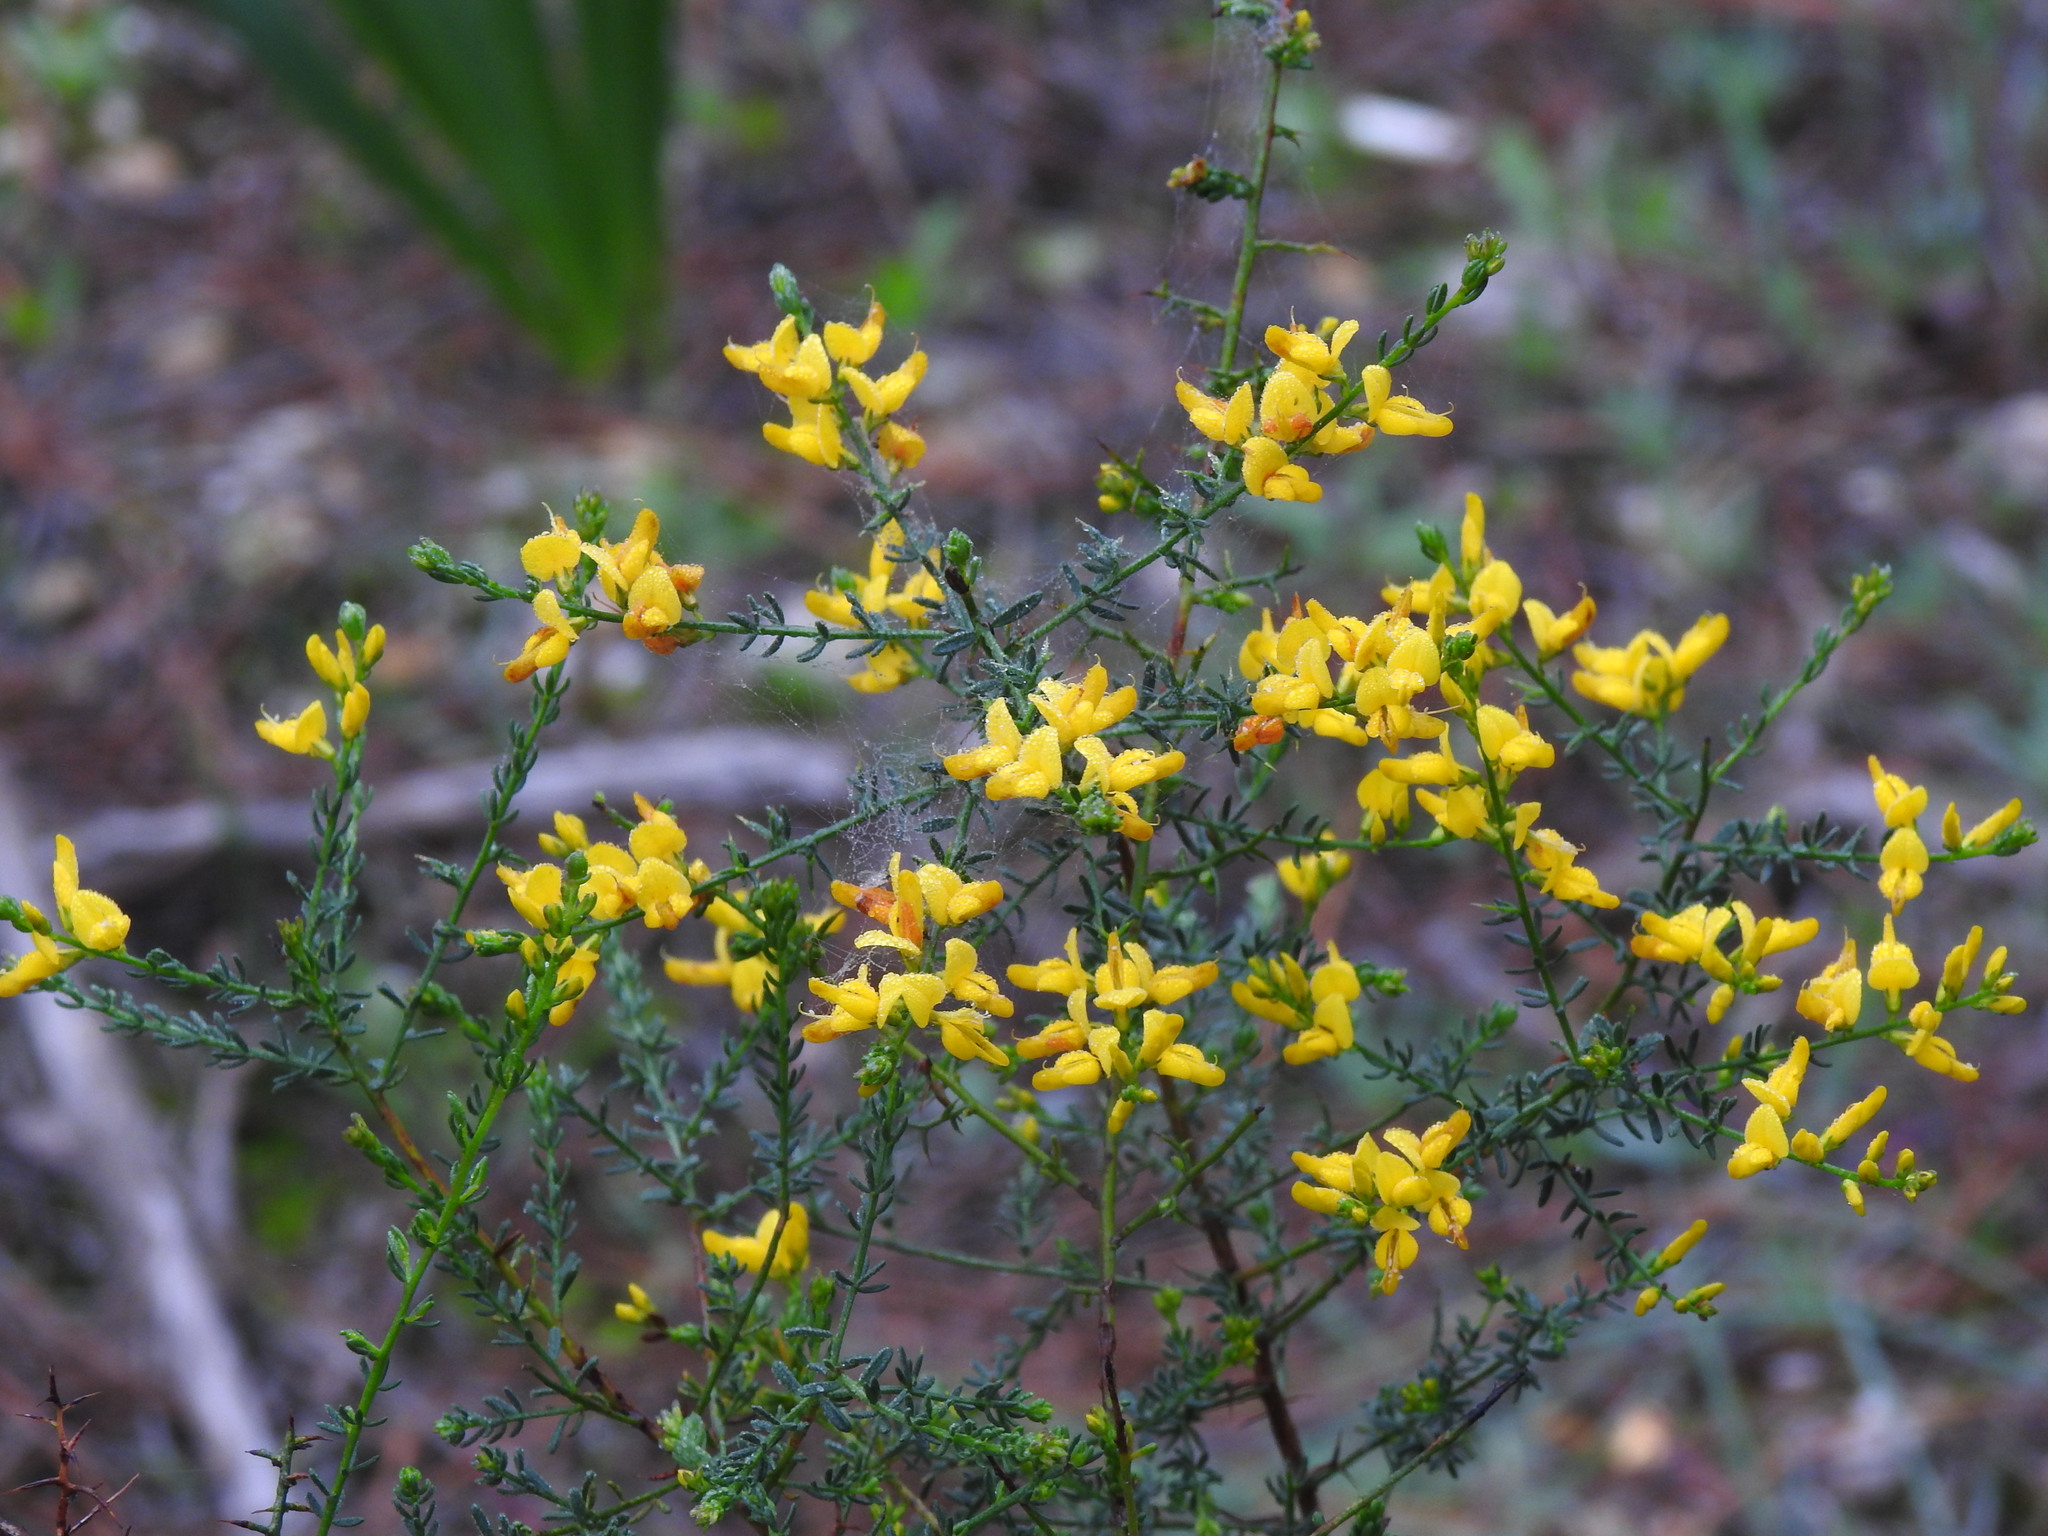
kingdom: Plantae
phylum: Tracheophyta
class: Magnoliopsida
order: Fabales
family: Fabaceae
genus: Genista
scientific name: Genista triacanthos
